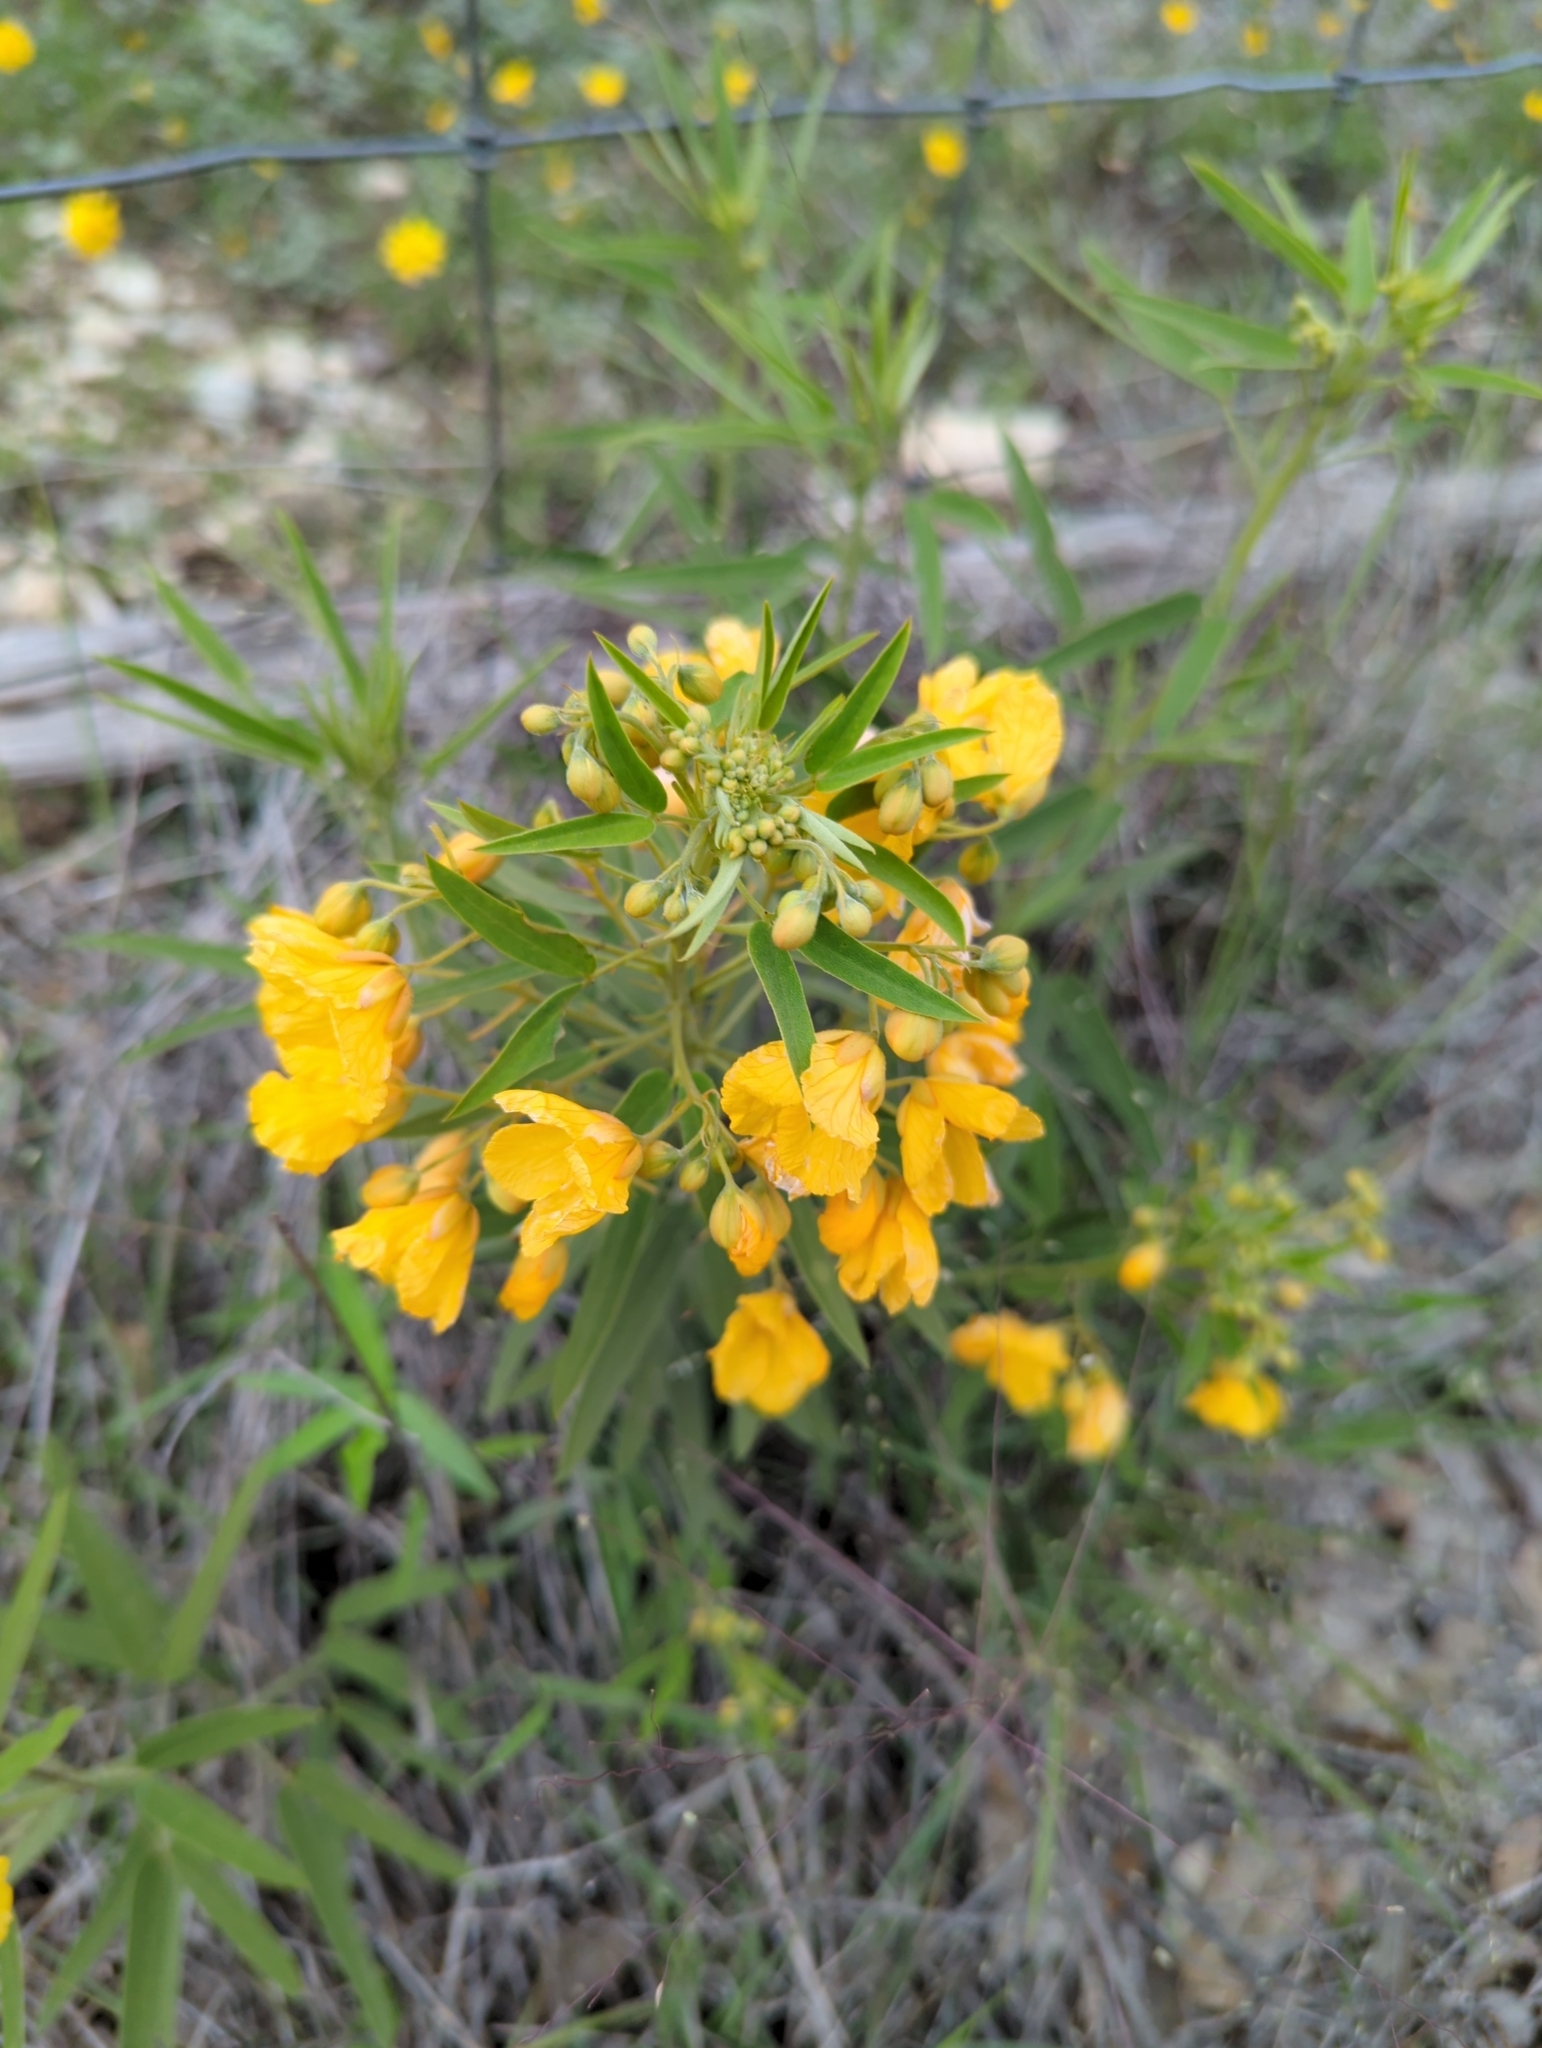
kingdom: Plantae
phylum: Tracheophyta
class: Magnoliopsida
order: Fabales
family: Fabaceae
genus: Senna
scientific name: Senna roemeriana
